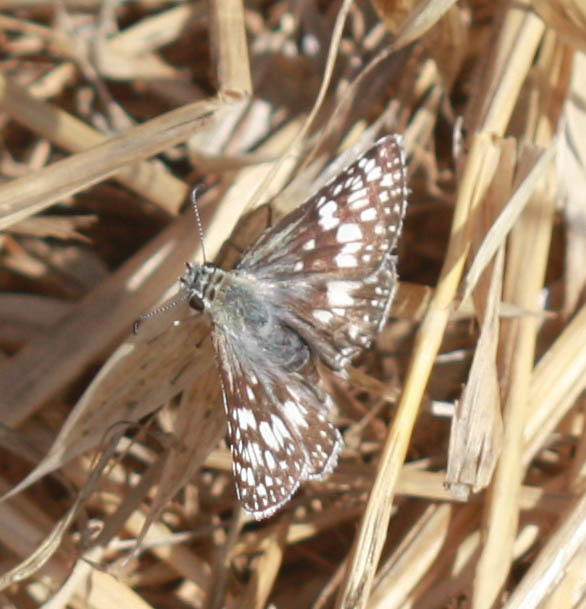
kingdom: Animalia
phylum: Arthropoda
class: Insecta
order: Lepidoptera
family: Hesperiidae
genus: Burnsius
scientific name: Burnsius communis
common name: Common checkered-skipper
